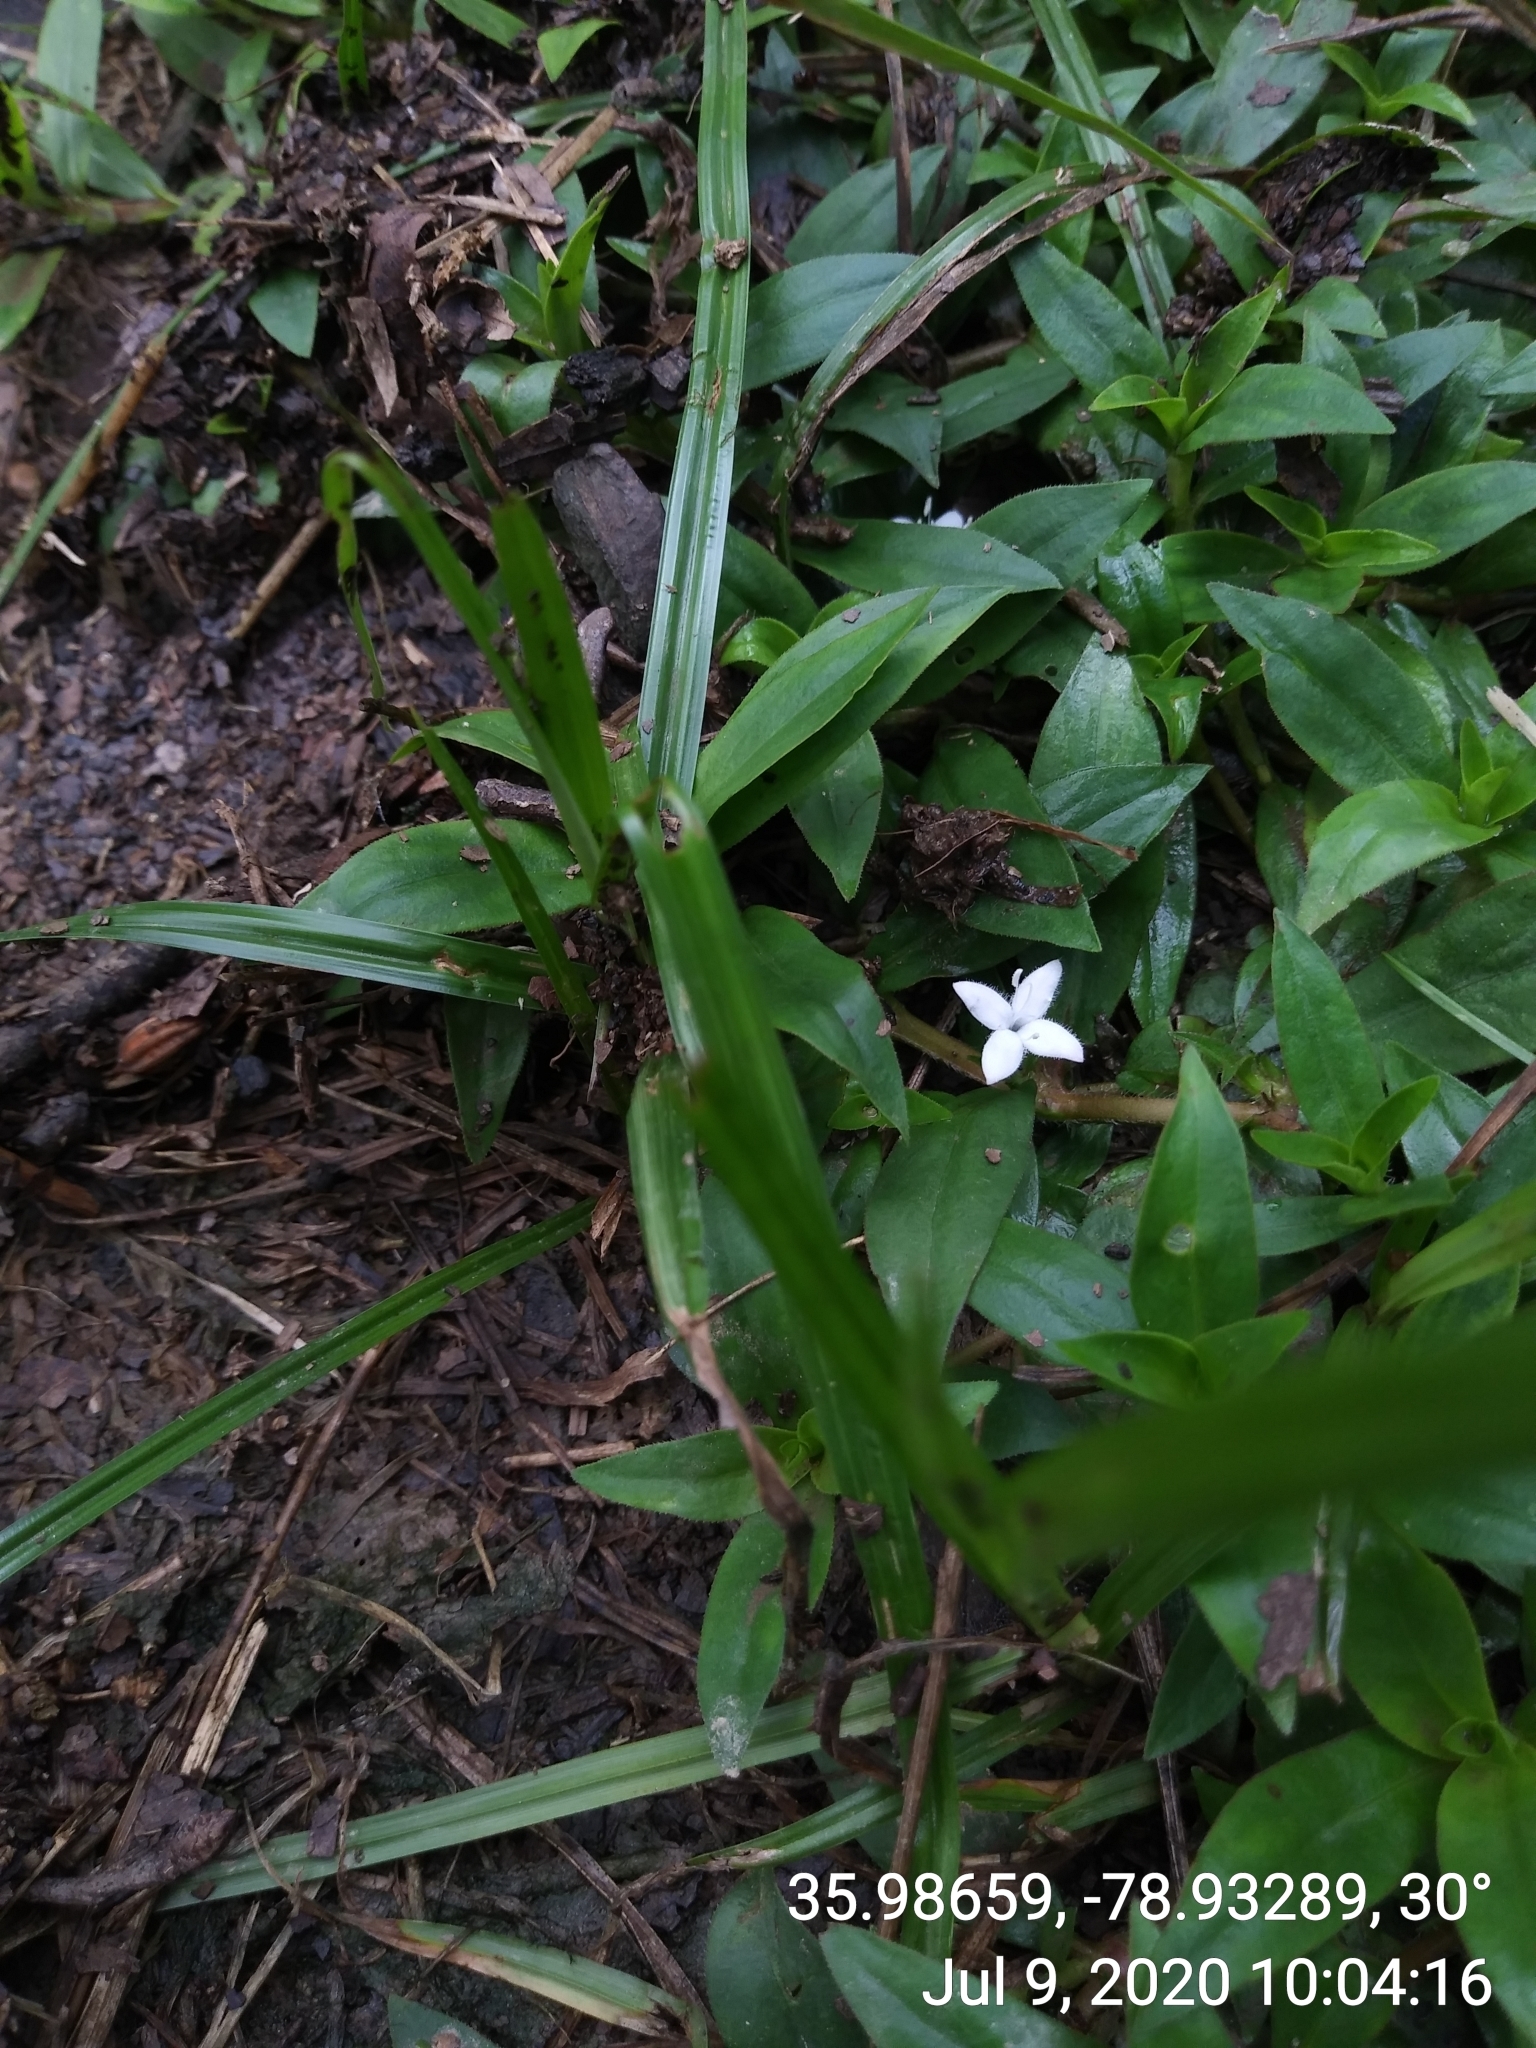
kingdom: Plantae
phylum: Tracheophyta
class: Magnoliopsida
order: Gentianales
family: Rubiaceae
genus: Diodia
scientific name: Diodia virginiana
